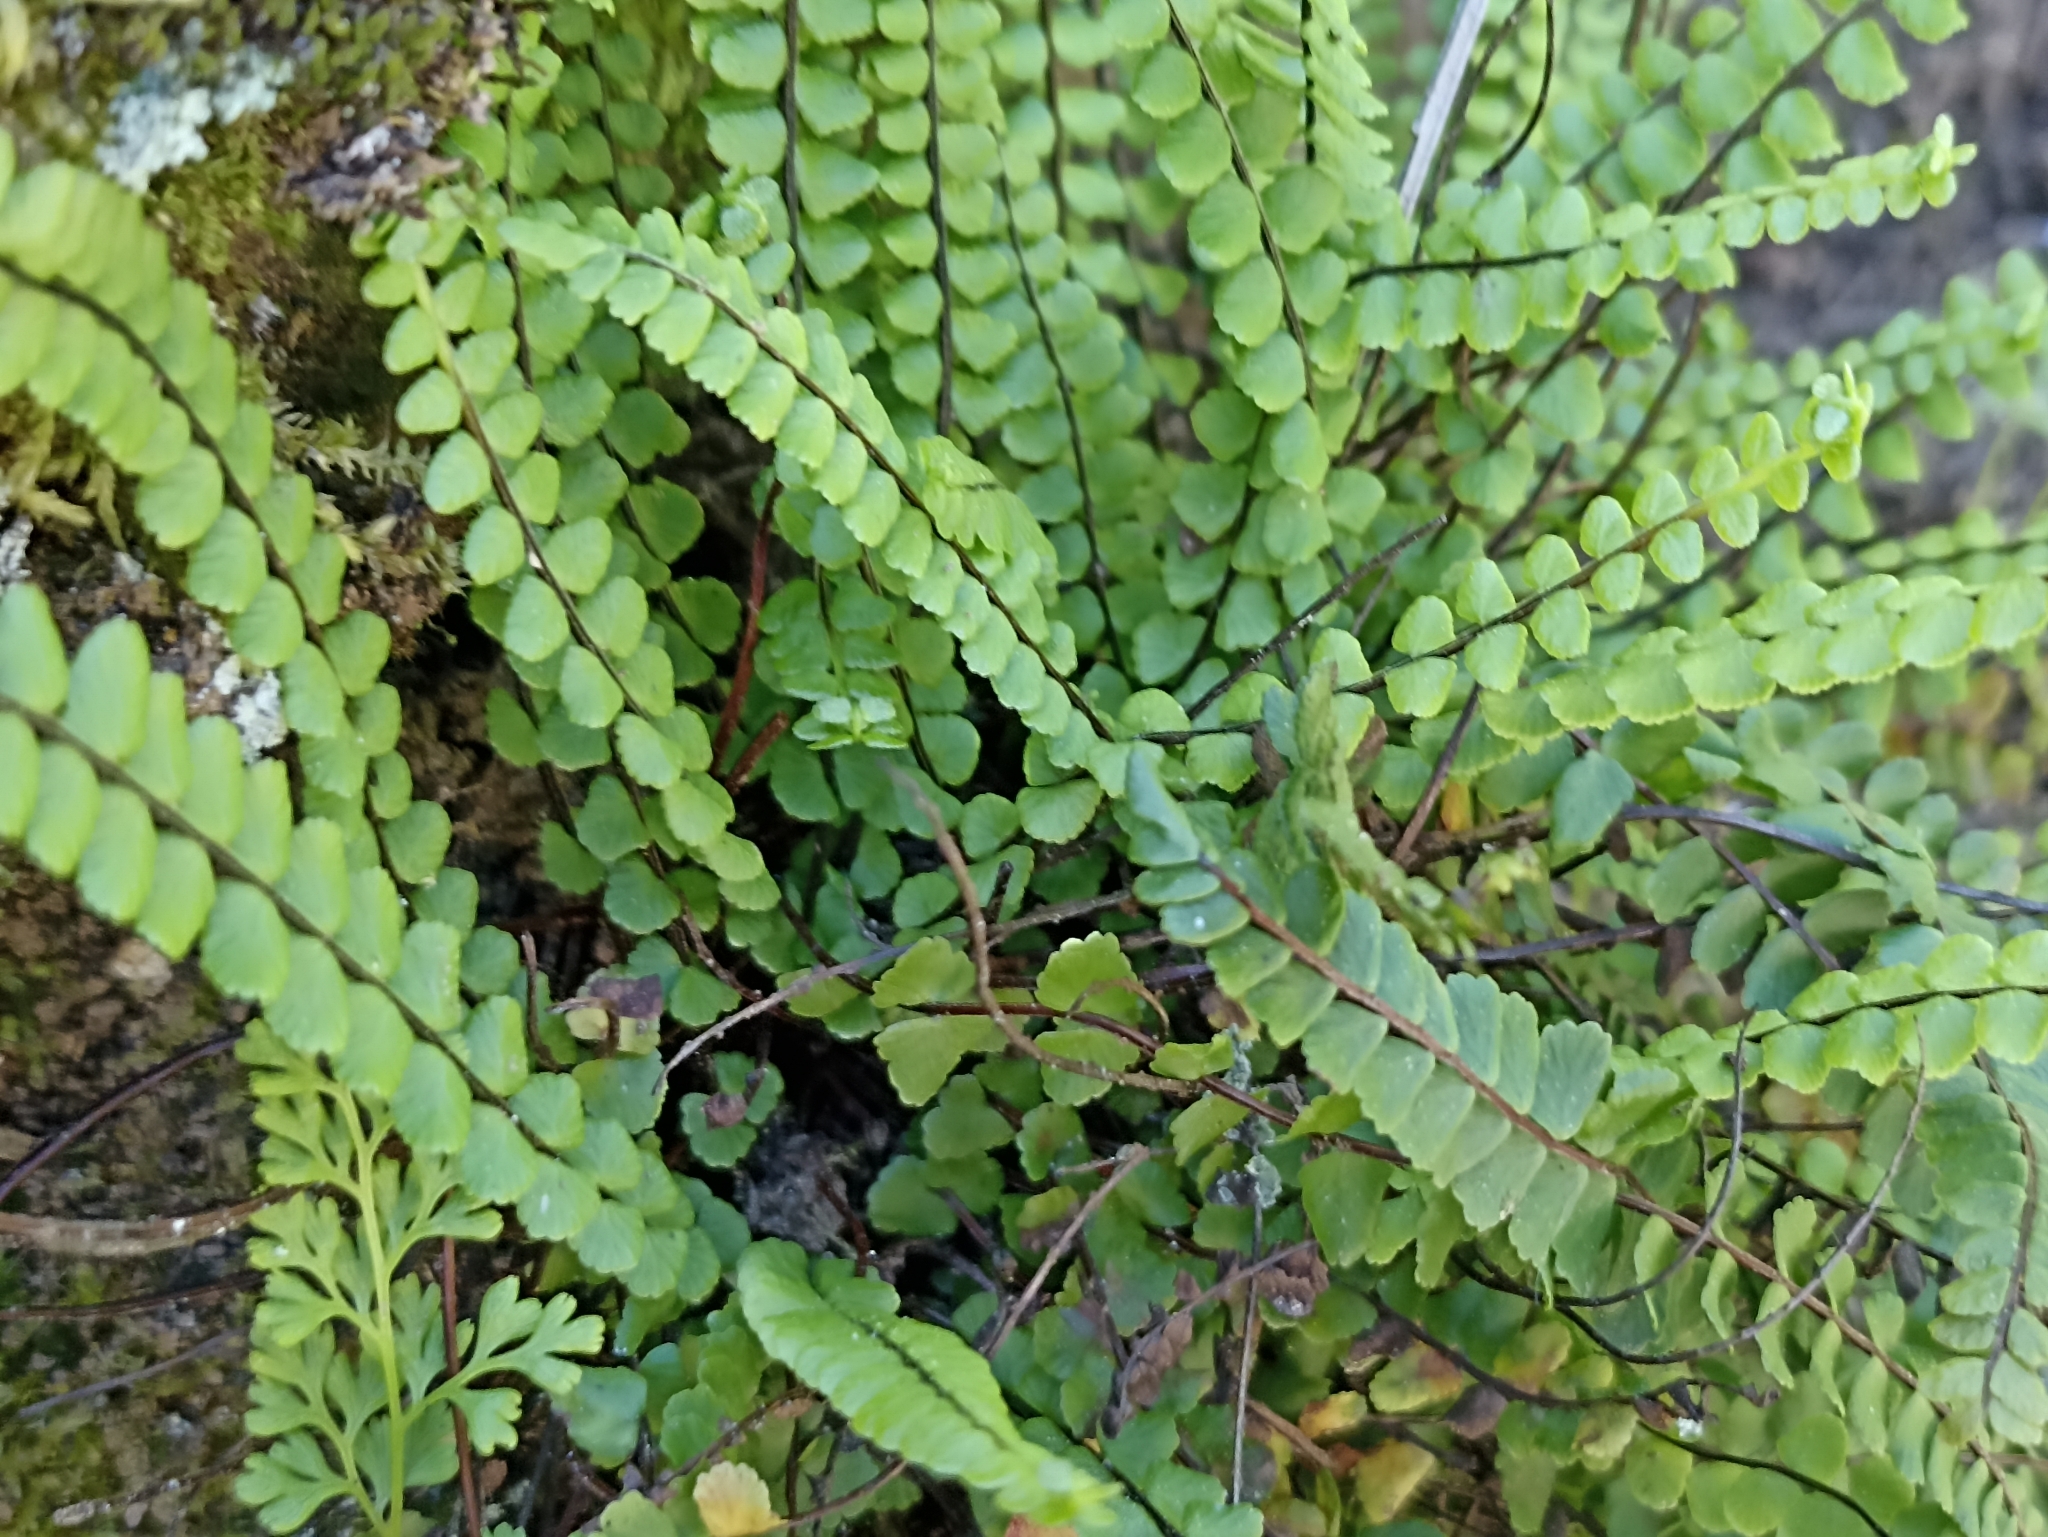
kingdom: Plantae
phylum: Tracheophyta
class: Polypodiopsida
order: Polypodiales
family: Aspleniaceae
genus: Asplenium
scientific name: Asplenium trichomanes
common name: Maidenhair spleenwort
